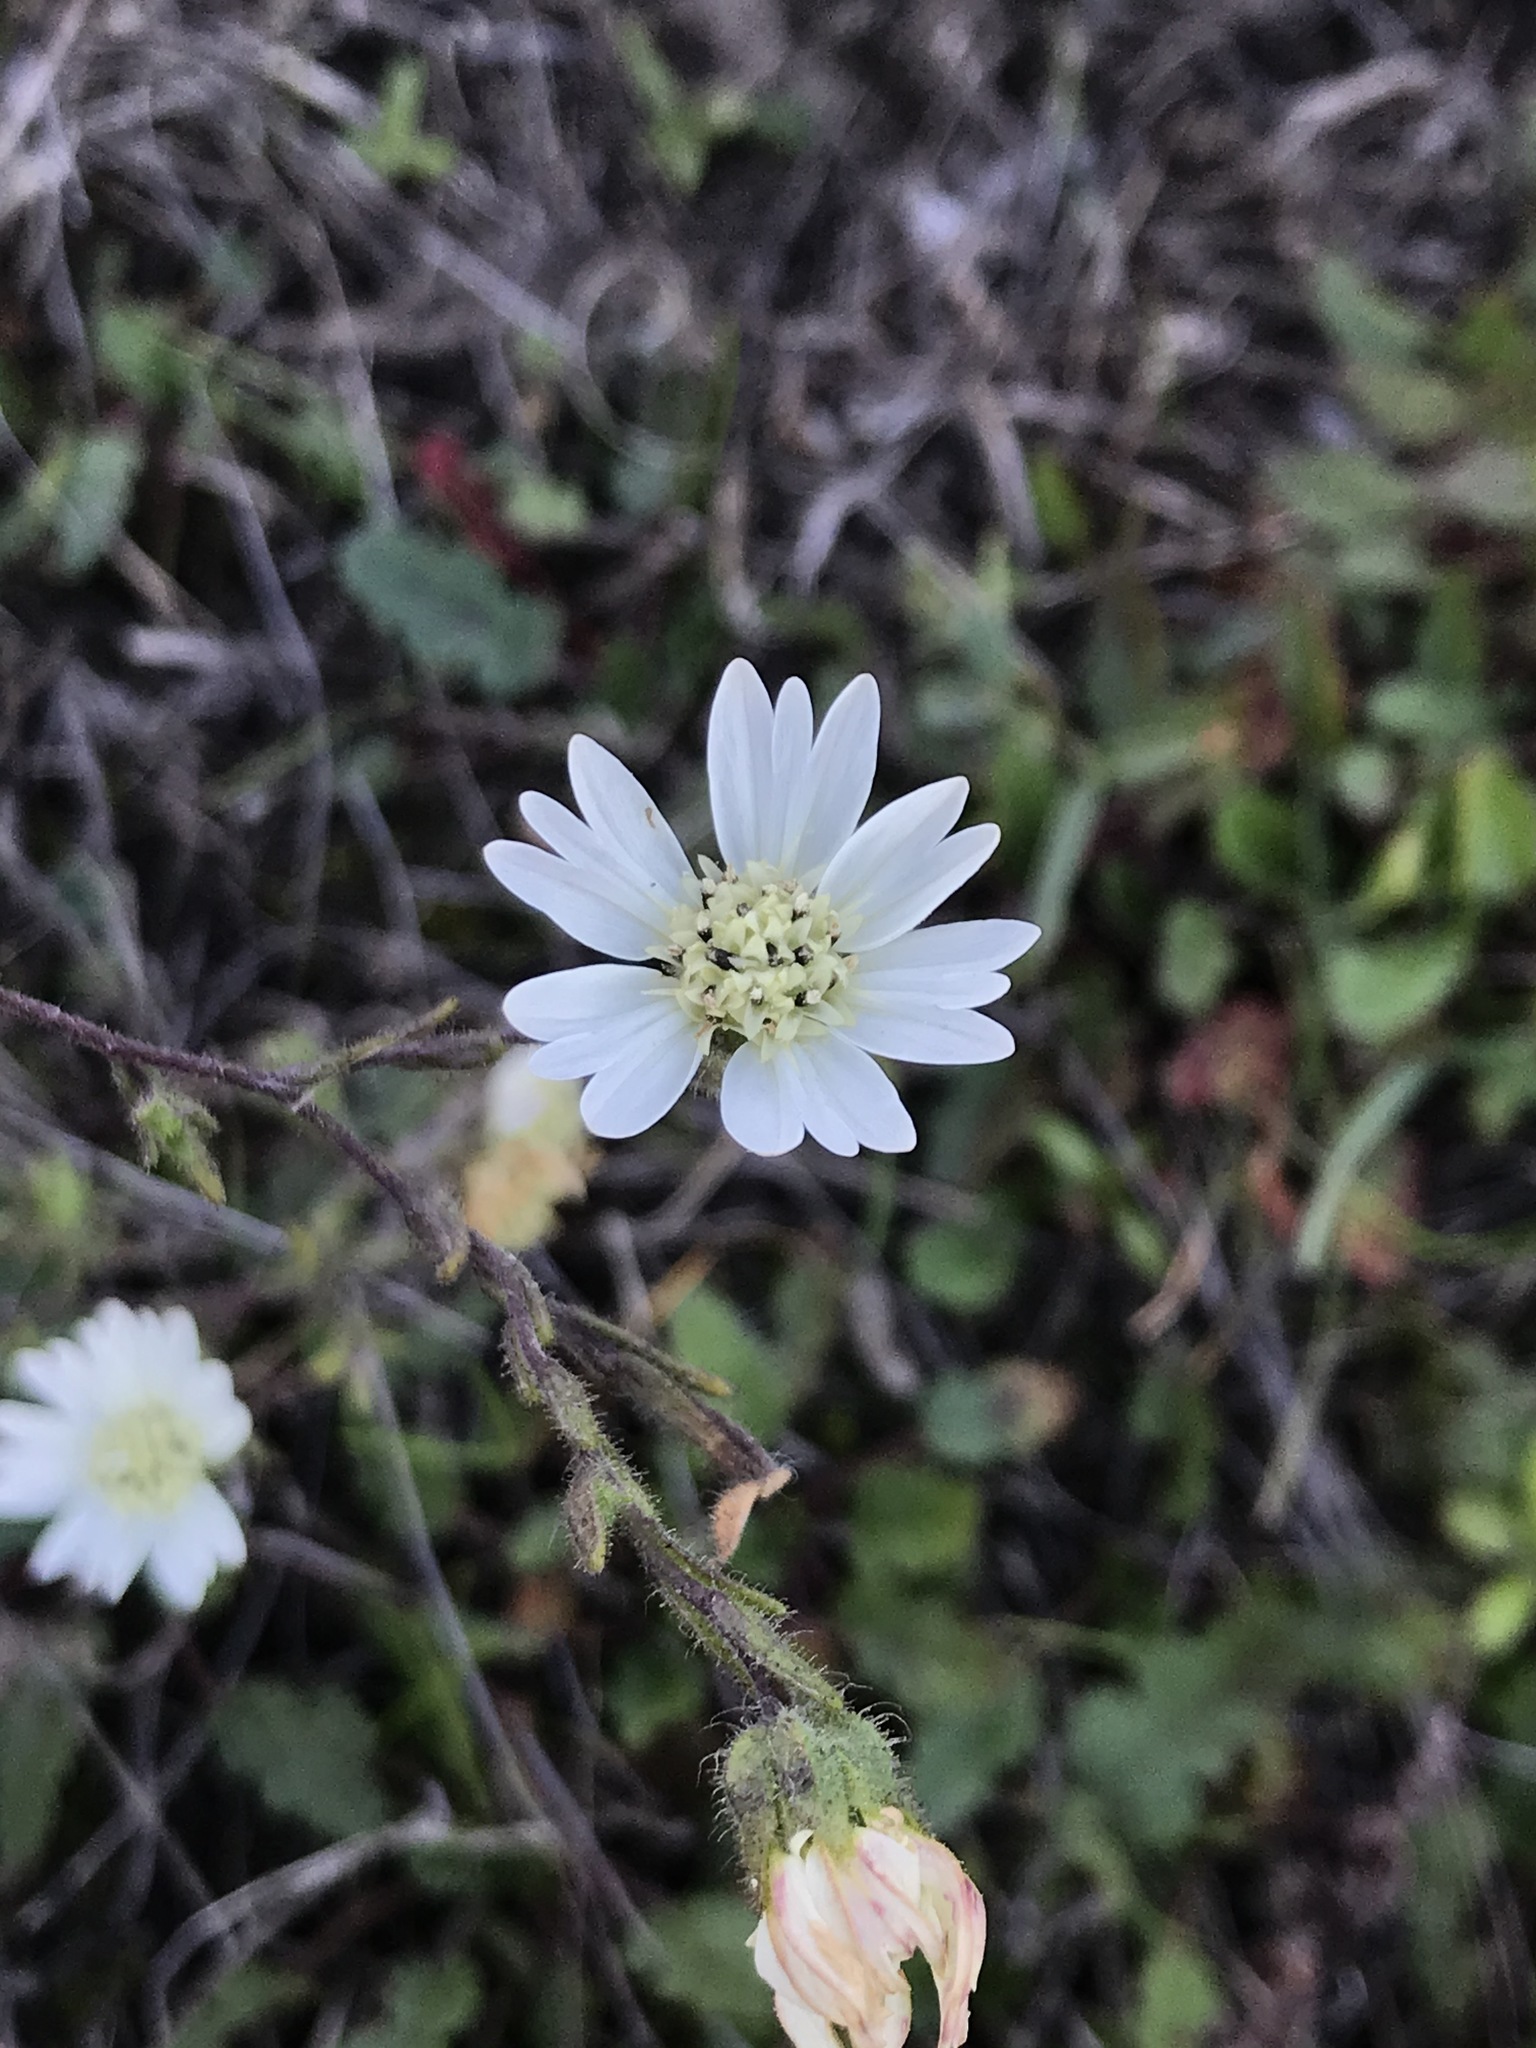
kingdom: Plantae
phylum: Tracheophyta
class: Magnoliopsida
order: Asterales
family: Asteraceae
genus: Hemizonia
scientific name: Hemizonia congesta
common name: Hayfield tarweed
